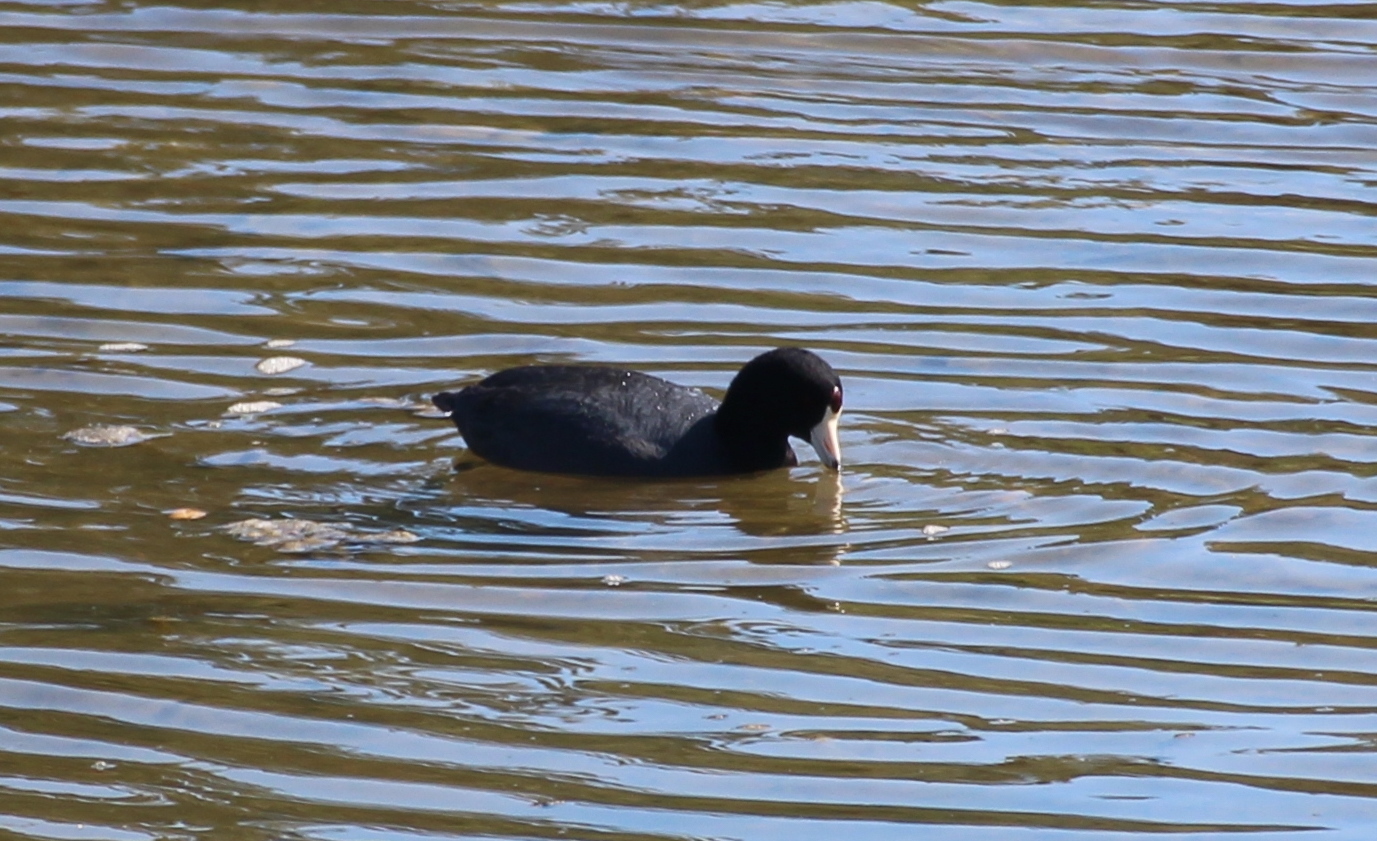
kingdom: Animalia
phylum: Chordata
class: Aves
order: Gruiformes
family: Rallidae
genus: Fulica
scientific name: Fulica americana
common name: American coot
